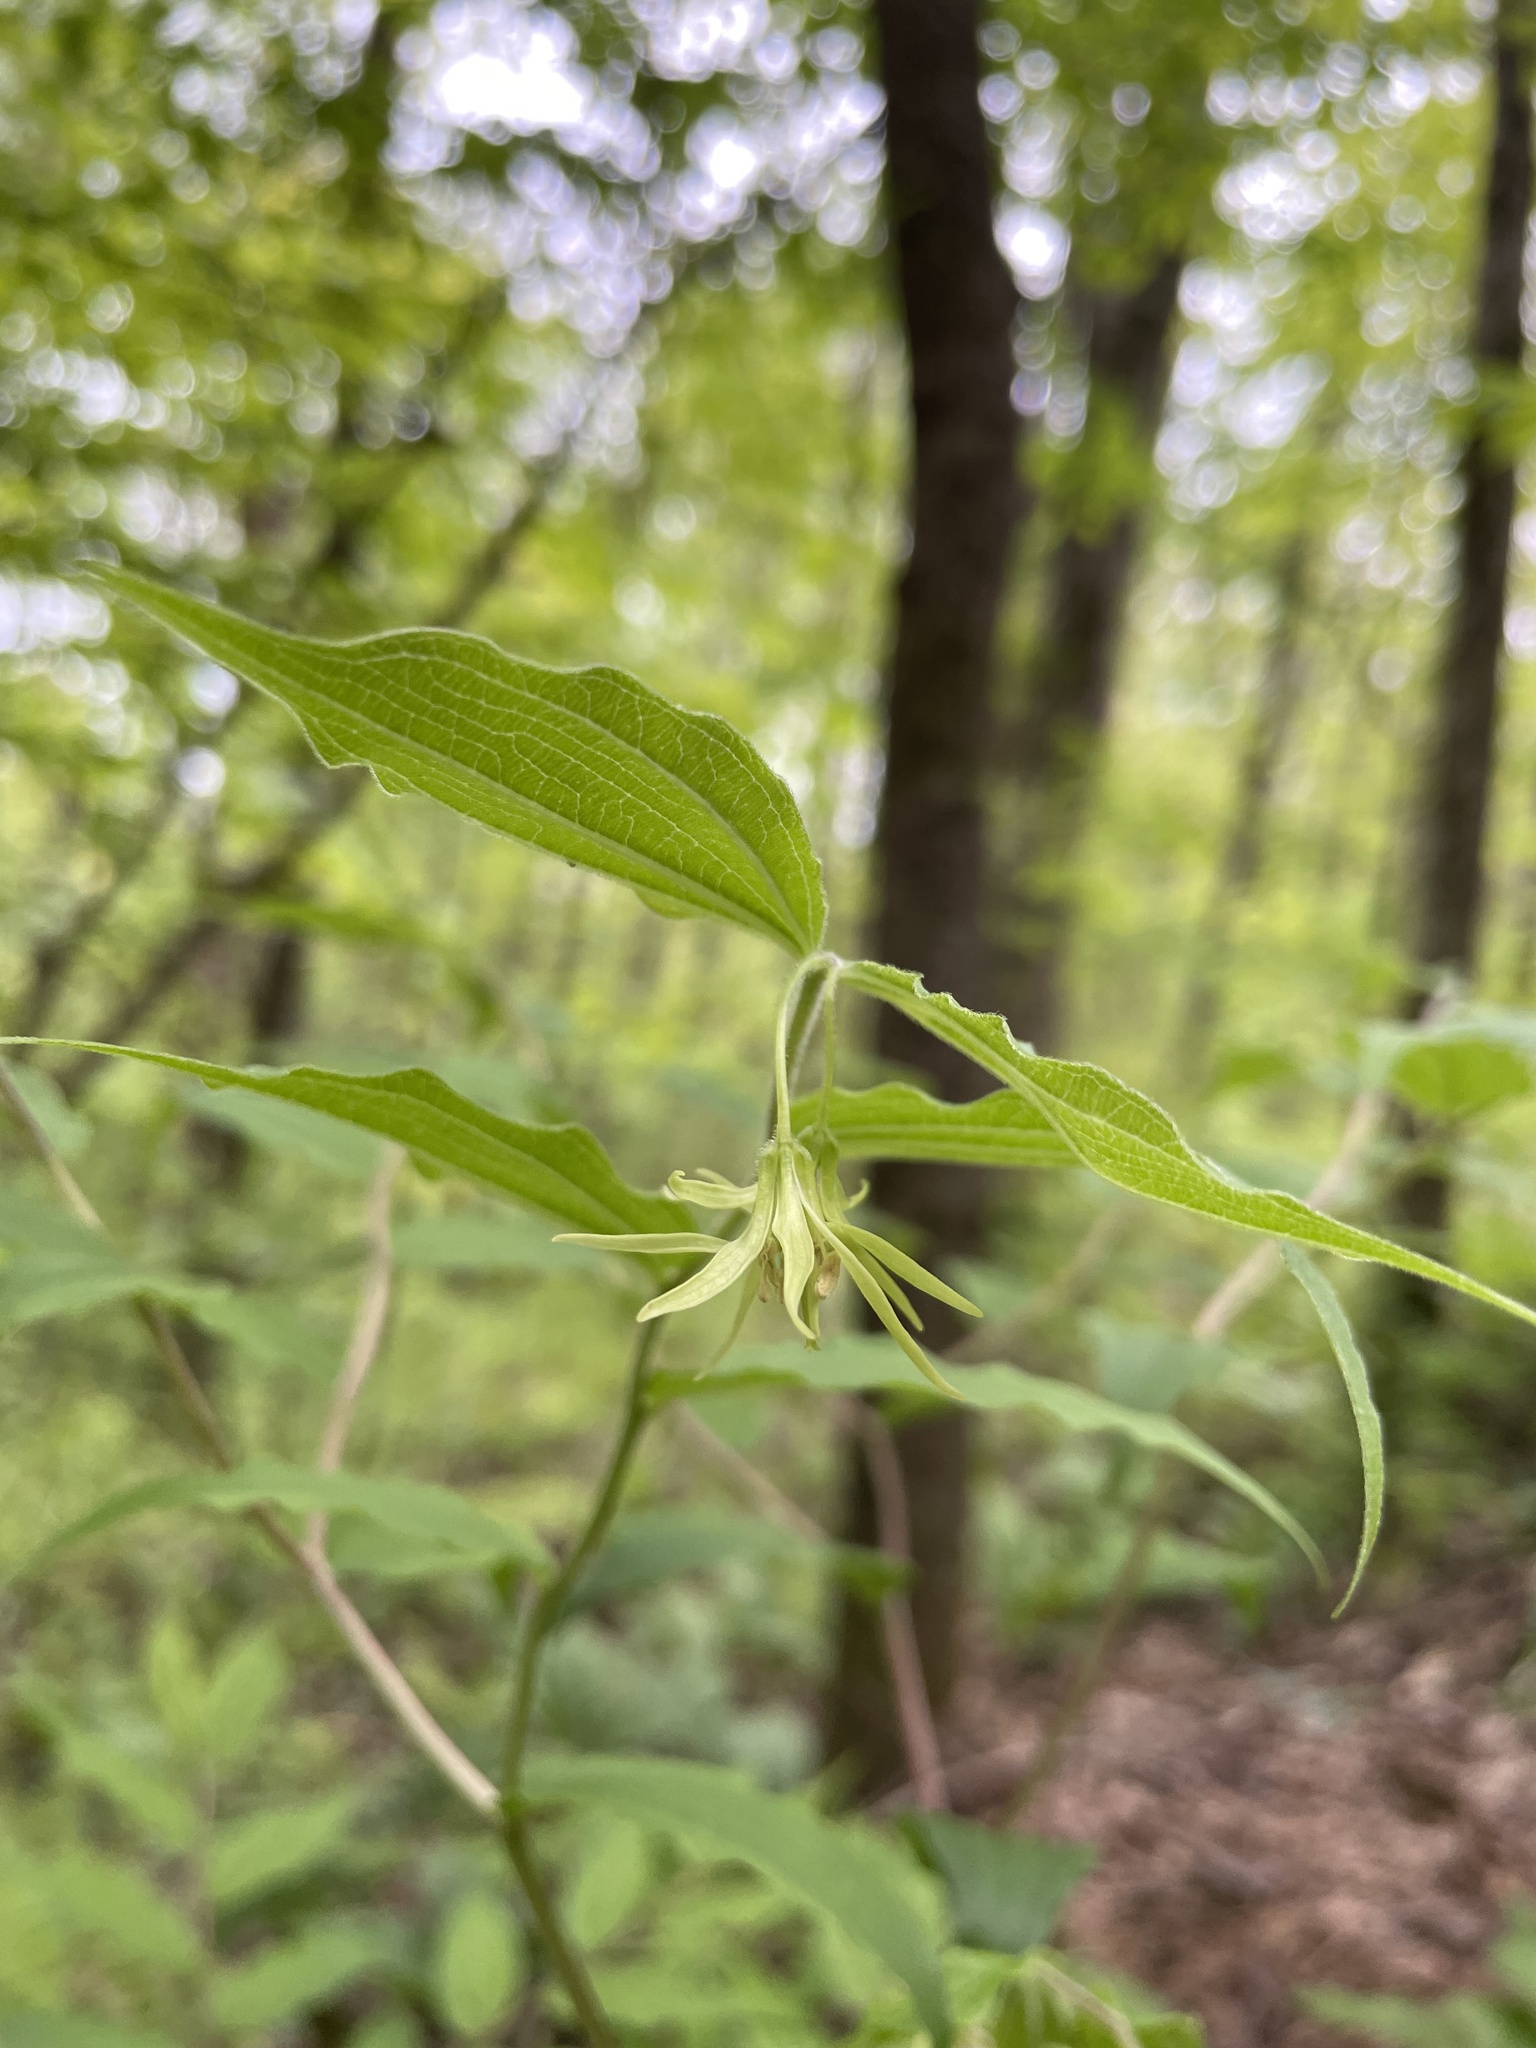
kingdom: Plantae
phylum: Tracheophyta
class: Liliopsida
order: Liliales
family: Liliaceae
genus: Prosartes
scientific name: Prosartes lanuginosa
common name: Hairy mandarin
